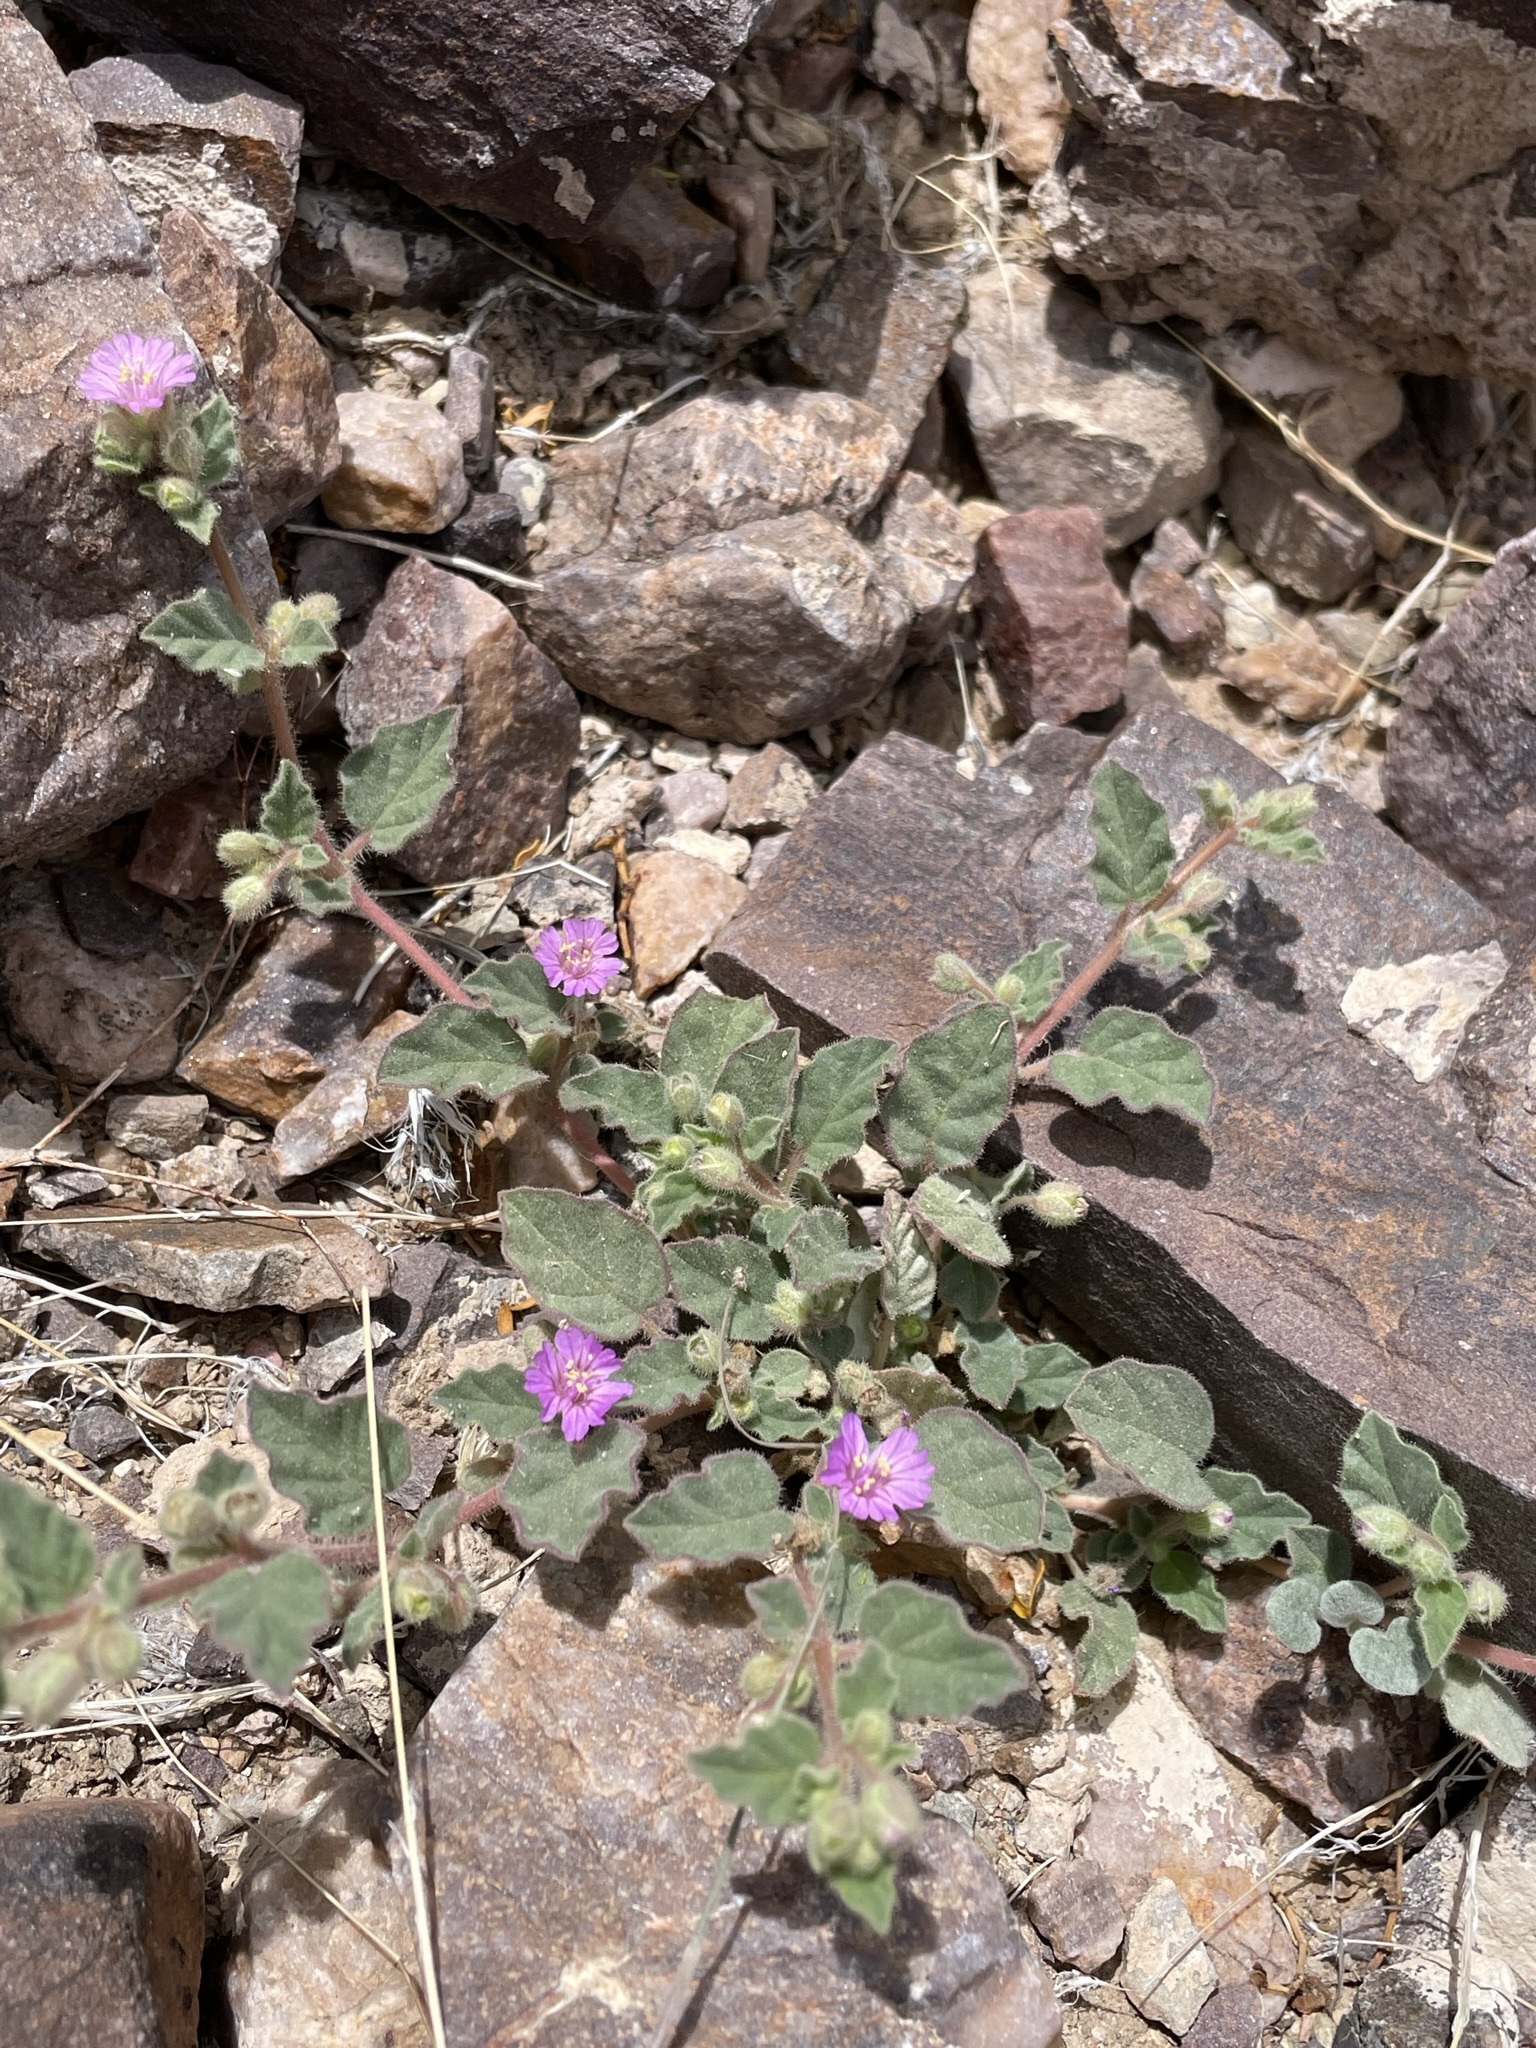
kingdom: Plantae
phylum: Tracheophyta
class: Magnoliopsida
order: Caryophyllales
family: Nyctaginaceae
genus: Allionia
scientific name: Allionia incarnata
